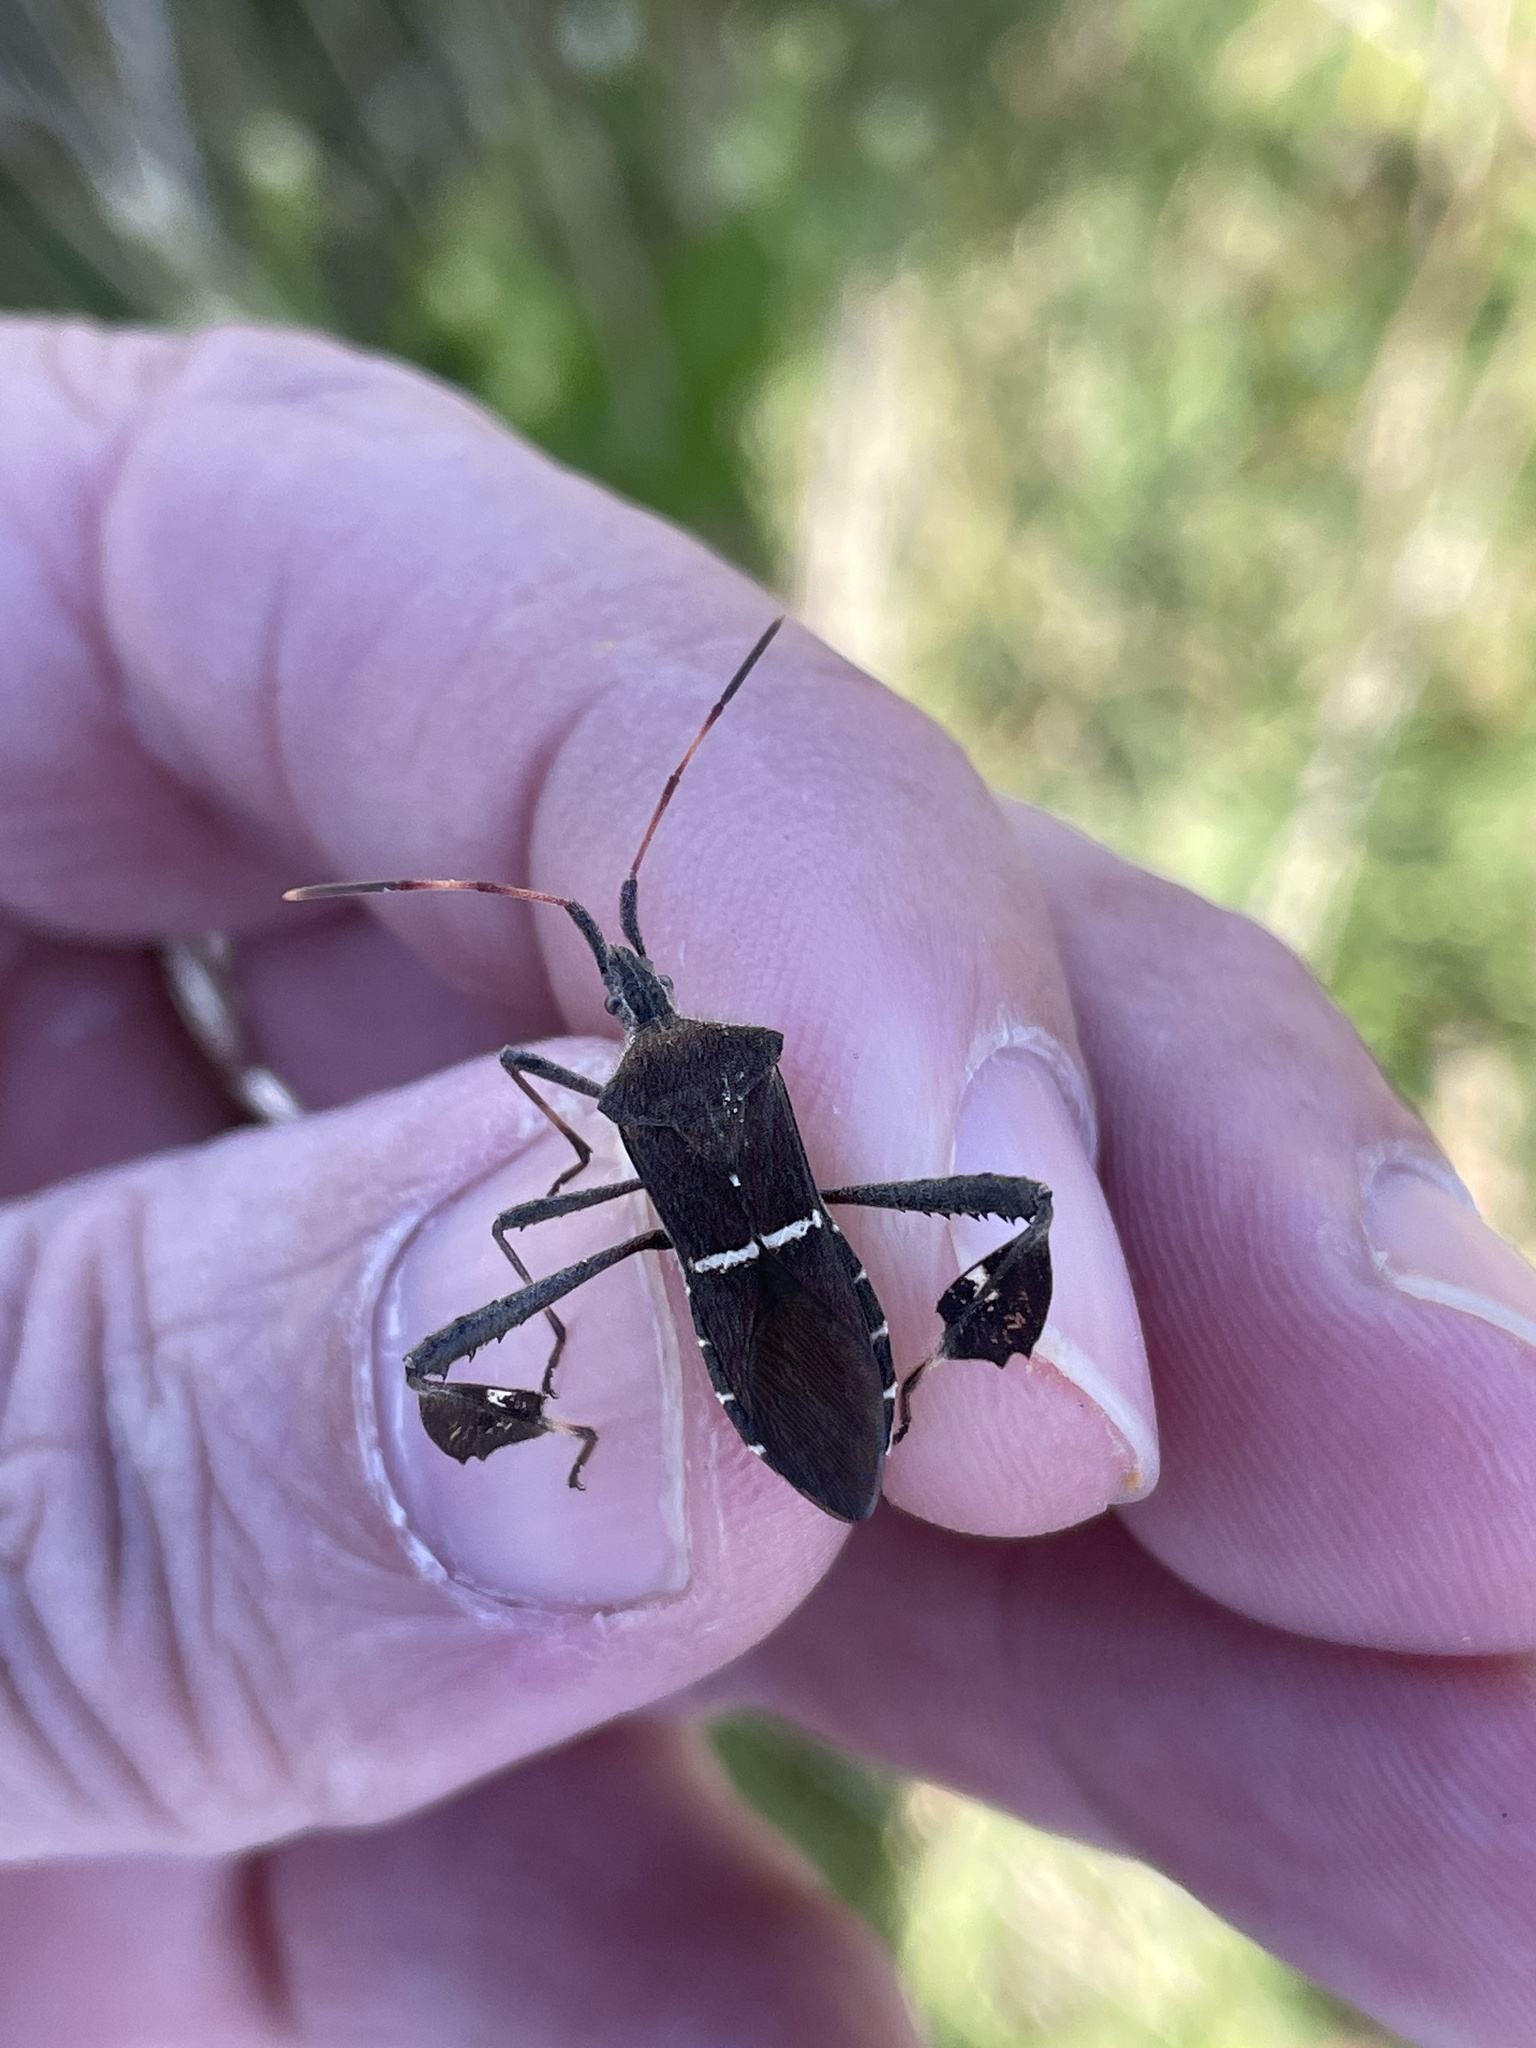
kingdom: Animalia
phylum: Arthropoda
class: Insecta
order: Hemiptera
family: Coreidae
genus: Leptoglossus
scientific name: Leptoglossus phyllopus
